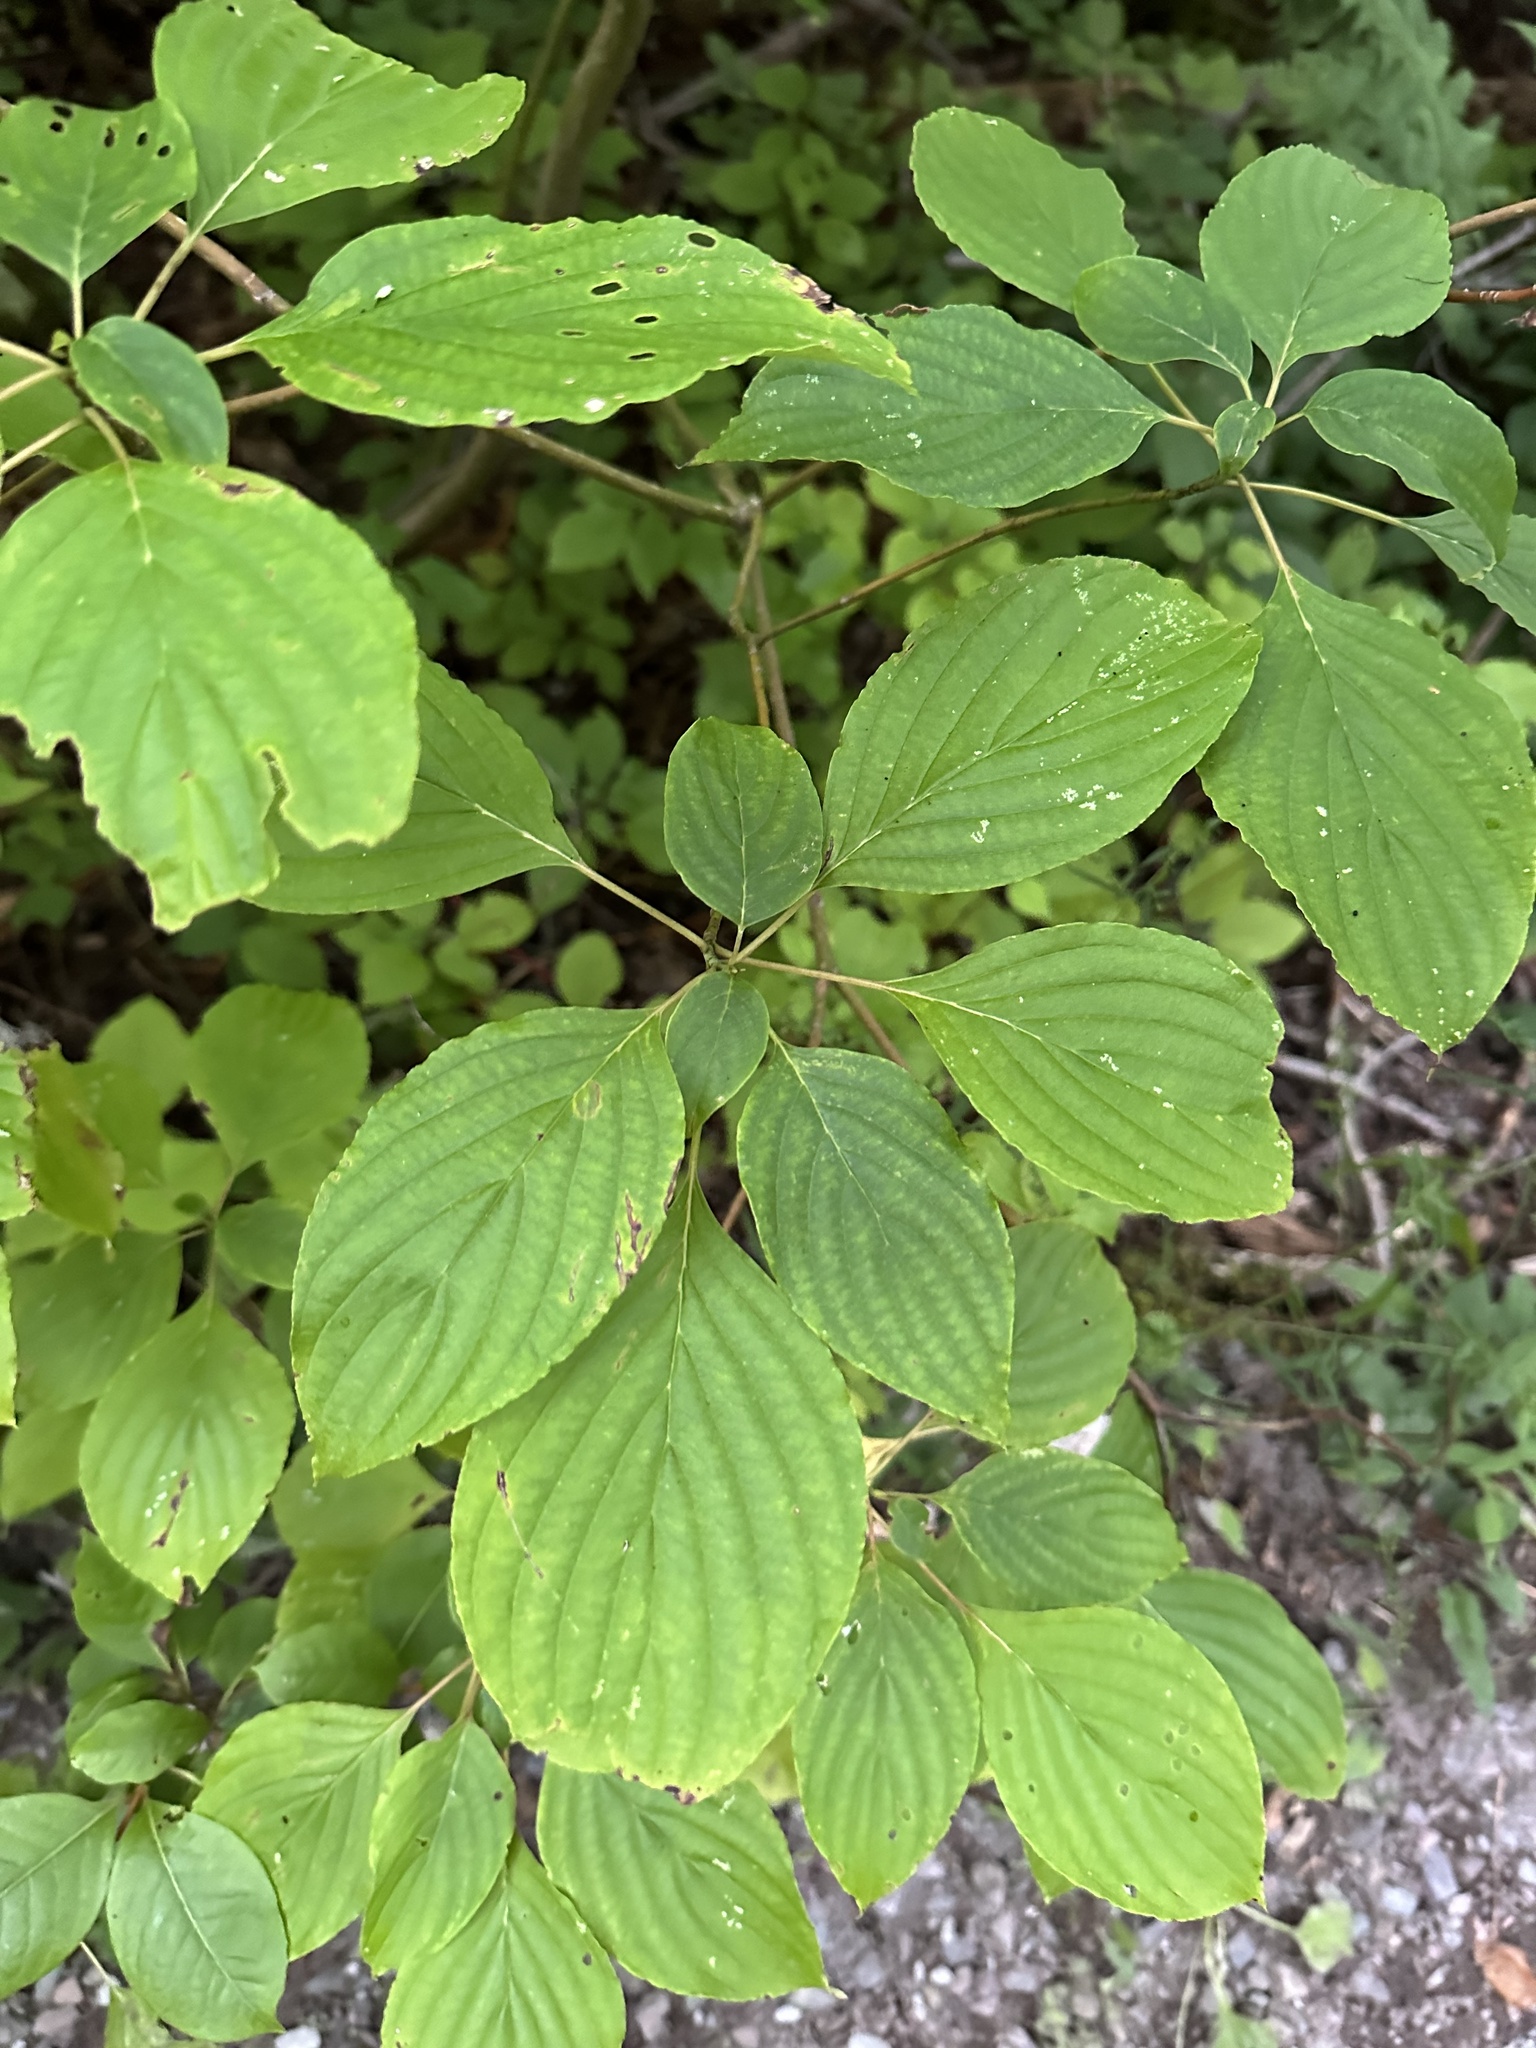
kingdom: Plantae
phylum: Tracheophyta
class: Magnoliopsida
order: Cornales
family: Cornaceae
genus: Cornus
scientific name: Cornus alternifolia
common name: Pagoda dogwood
